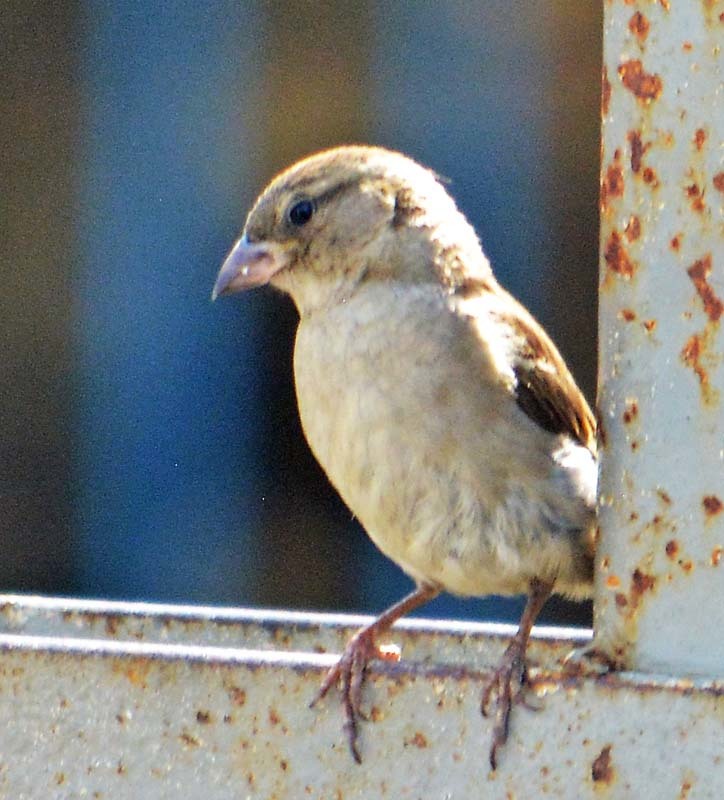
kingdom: Animalia
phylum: Chordata
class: Aves
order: Passeriformes
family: Passeridae
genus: Passer
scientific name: Passer domesticus
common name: House sparrow
